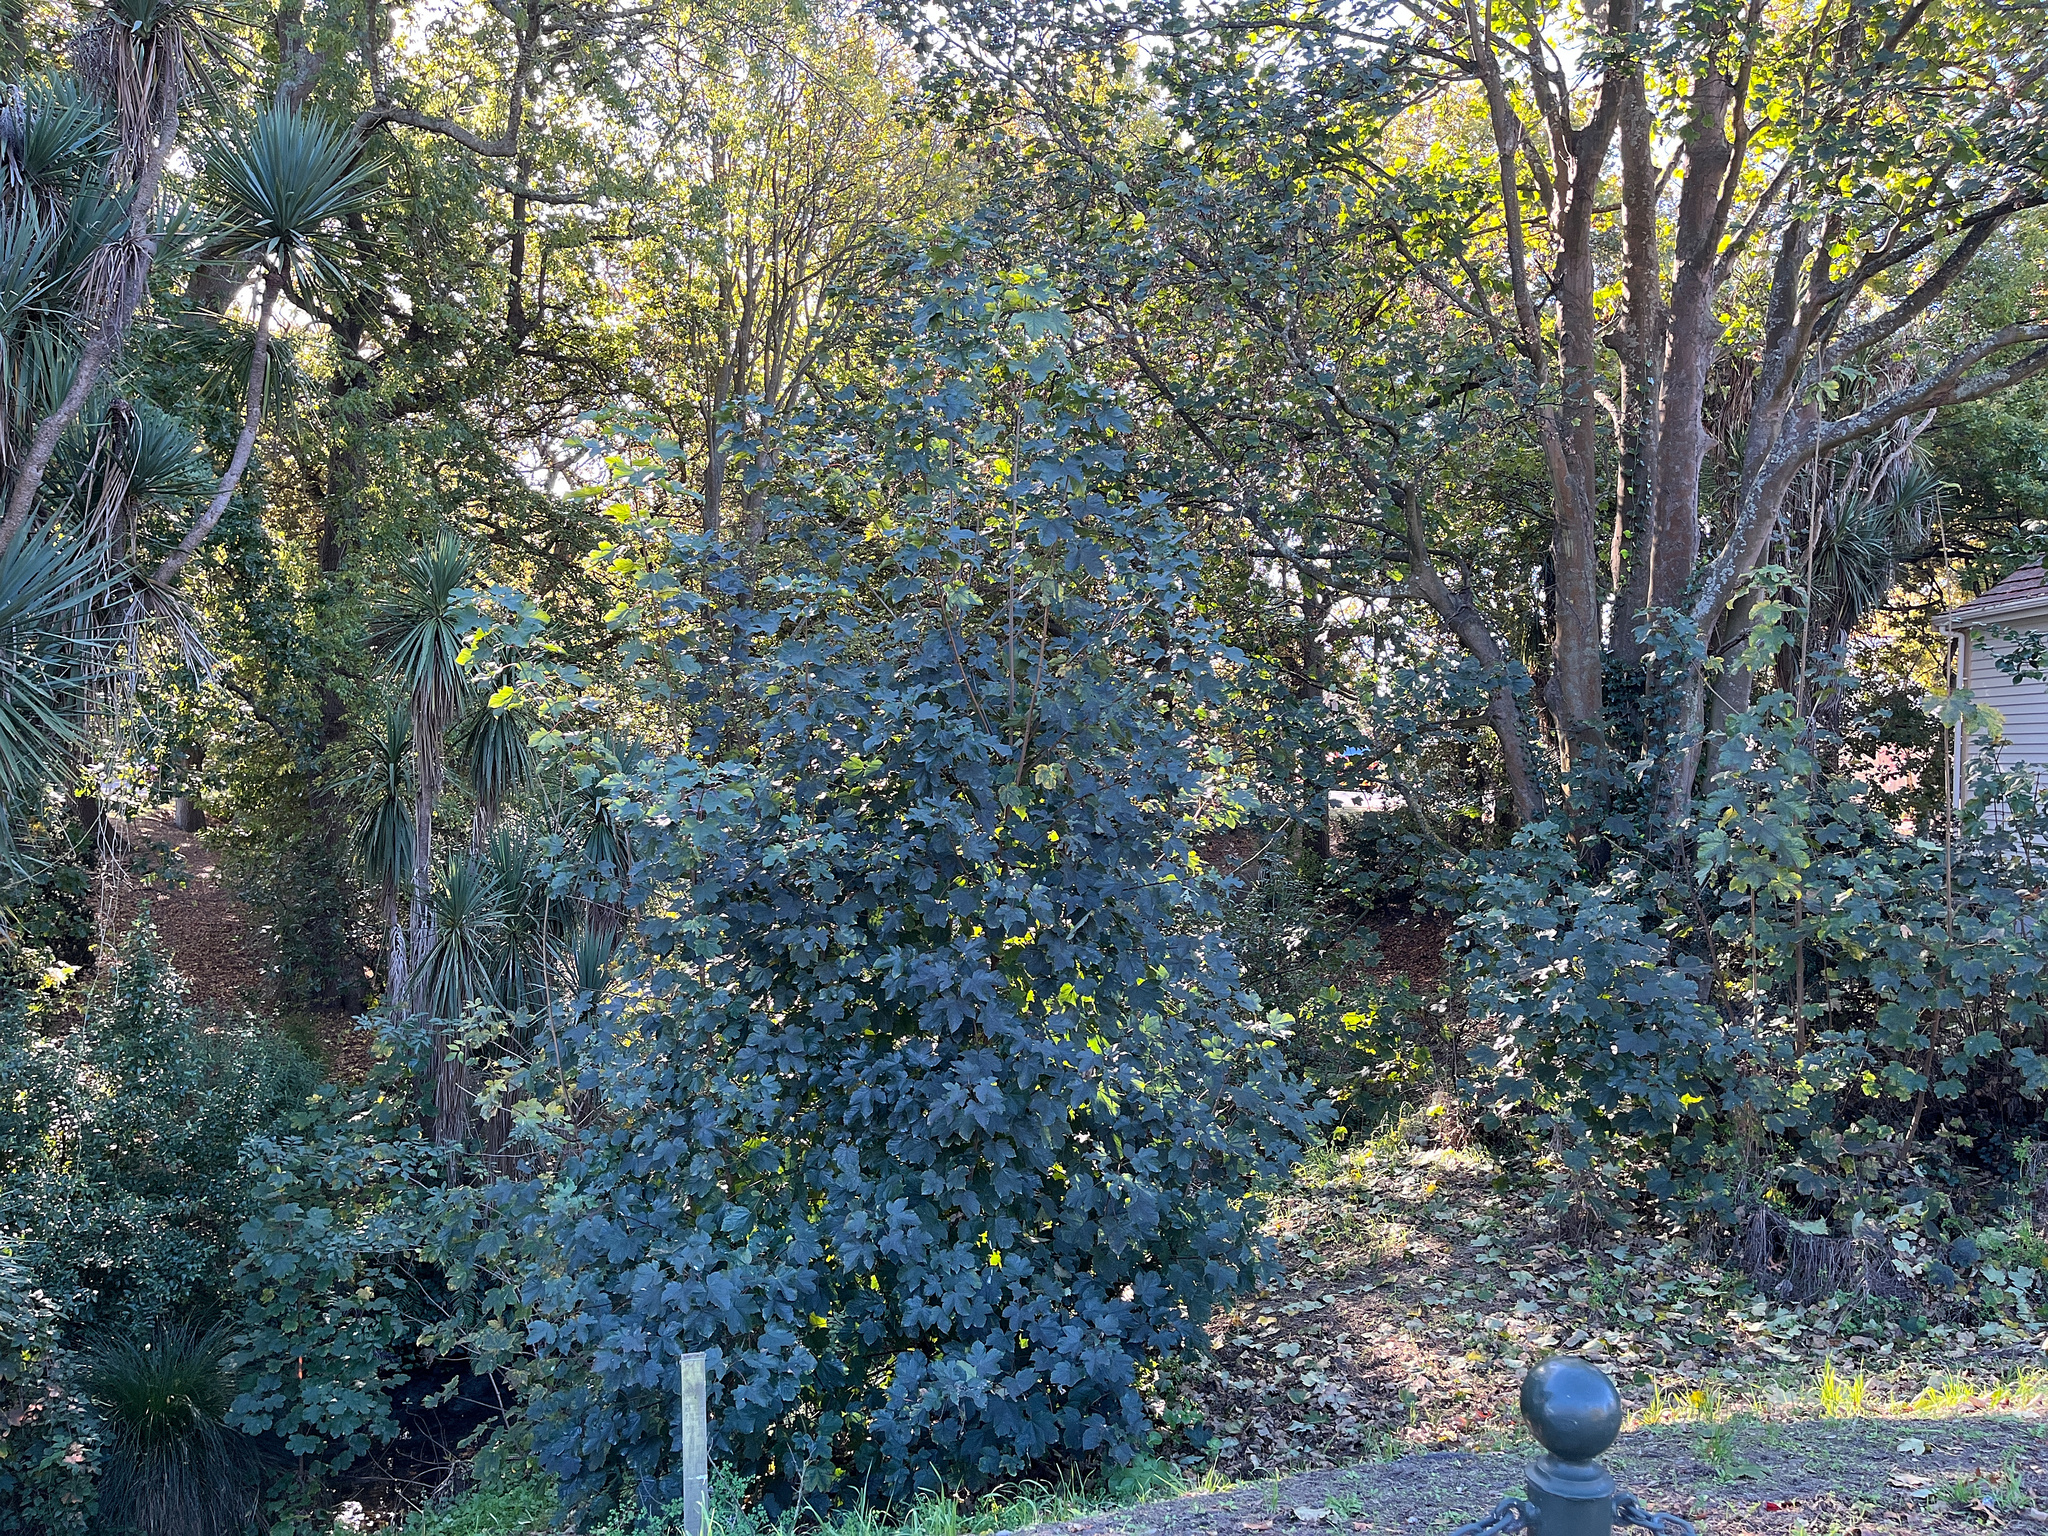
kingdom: Plantae
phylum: Tracheophyta
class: Magnoliopsida
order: Sapindales
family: Sapindaceae
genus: Acer
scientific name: Acer pseudoplatanus
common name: Sycamore
